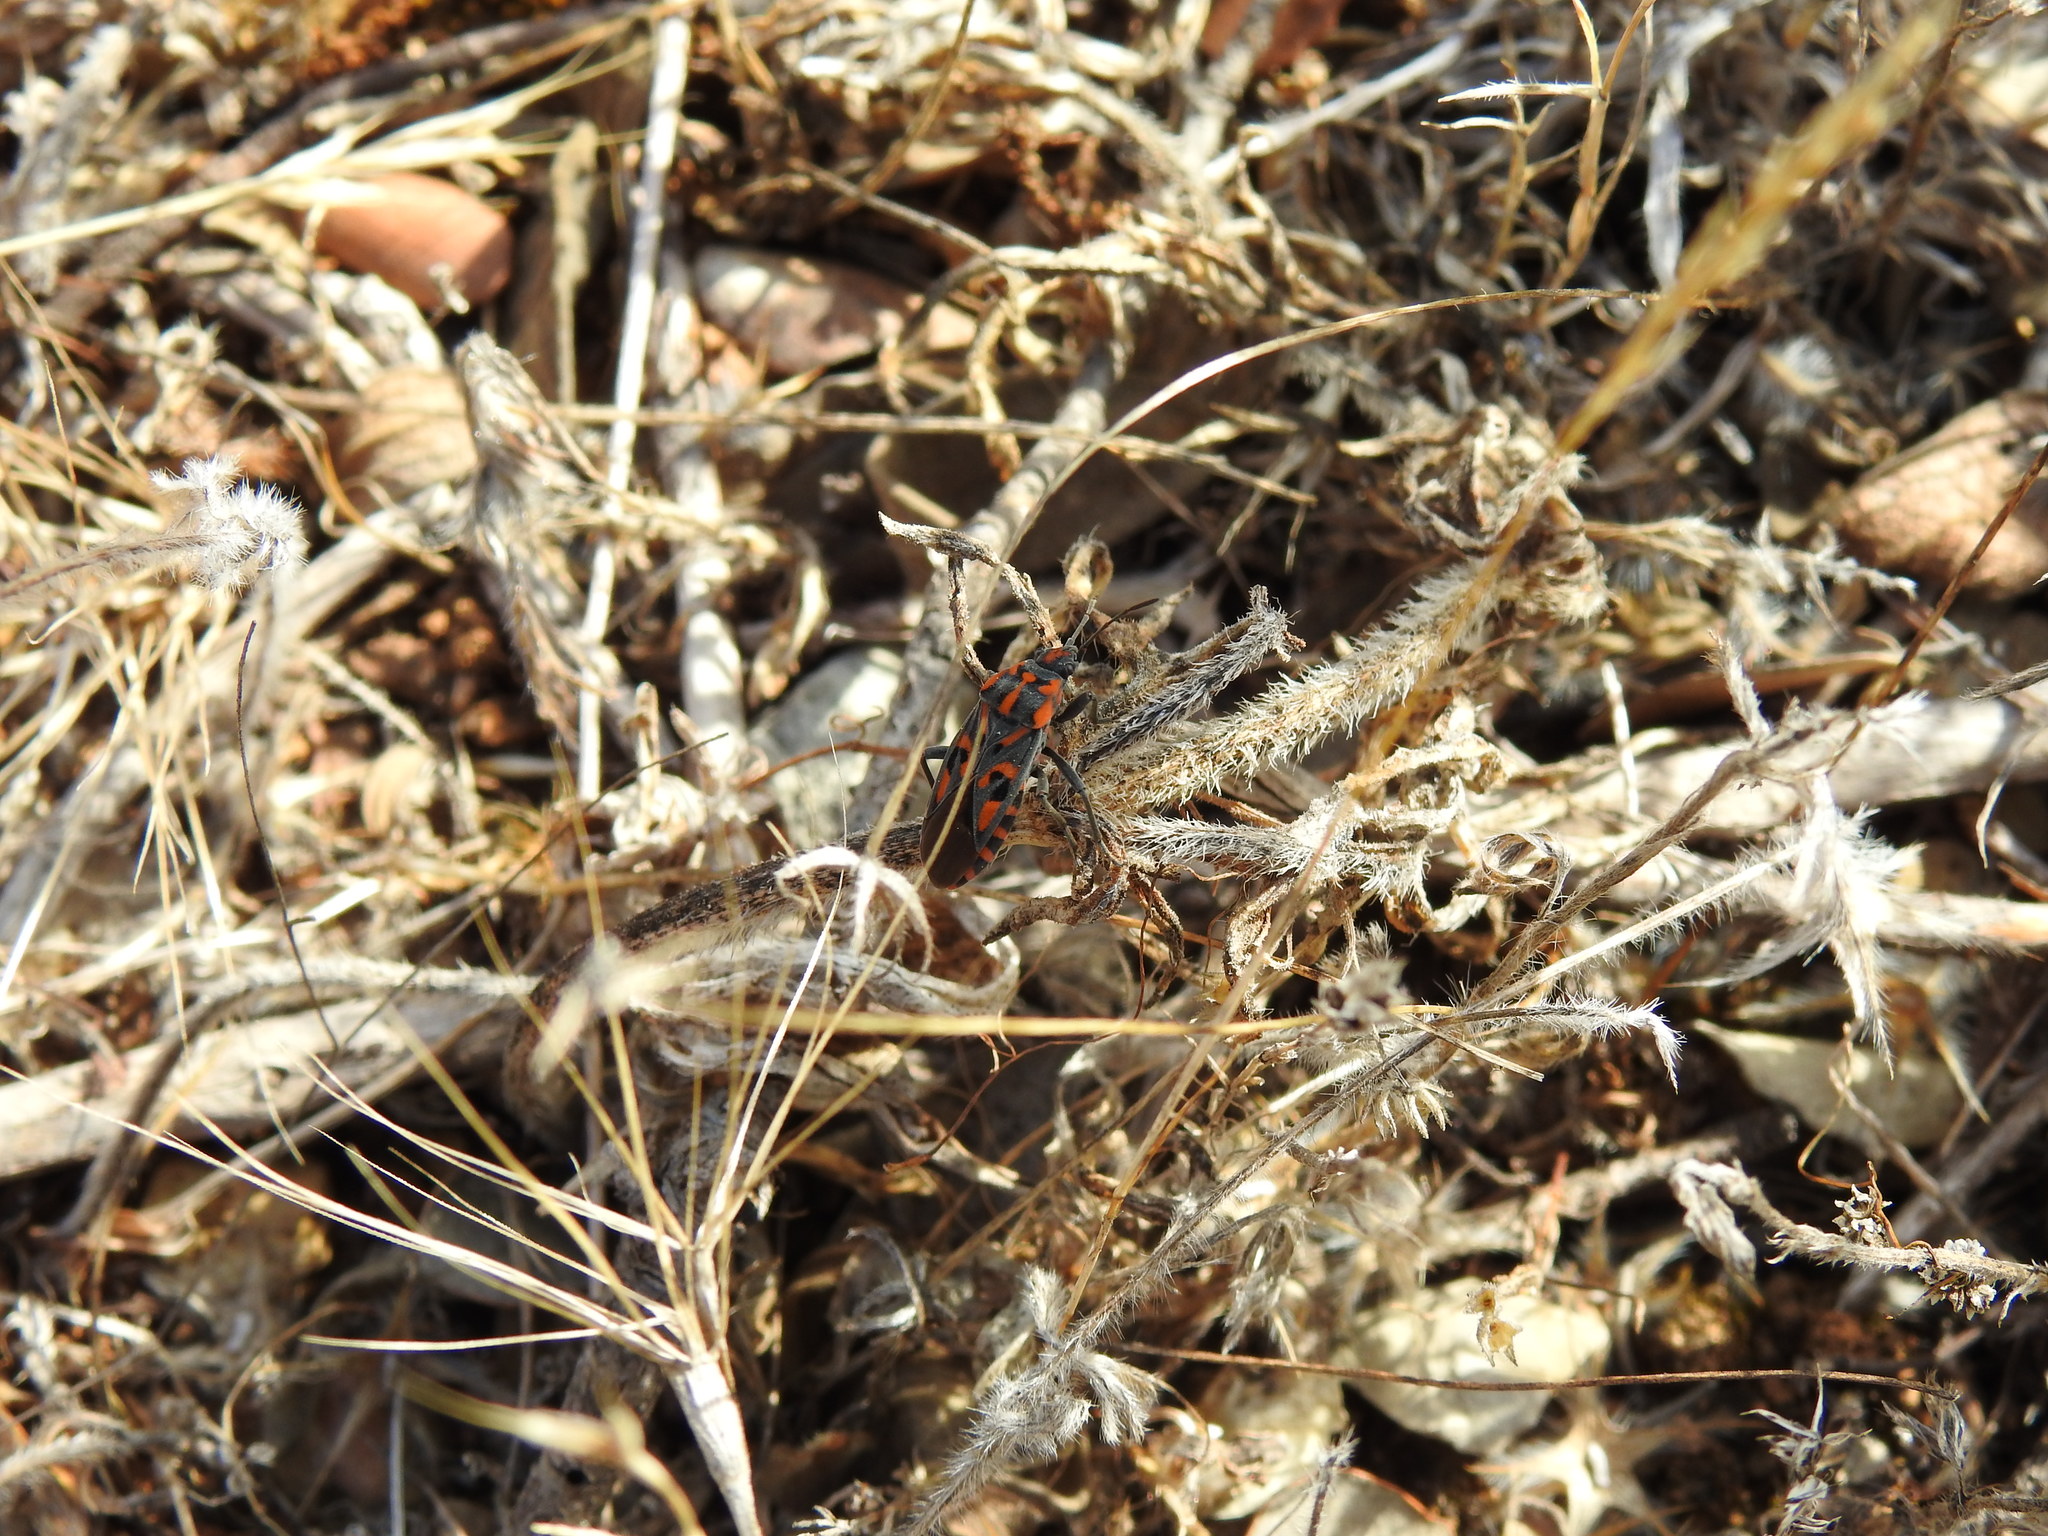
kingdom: Animalia
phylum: Arthropoda
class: Insecta
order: Hemiptera
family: Lygaeidae
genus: Spilostethus
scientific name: Spilostethus saxatilis
